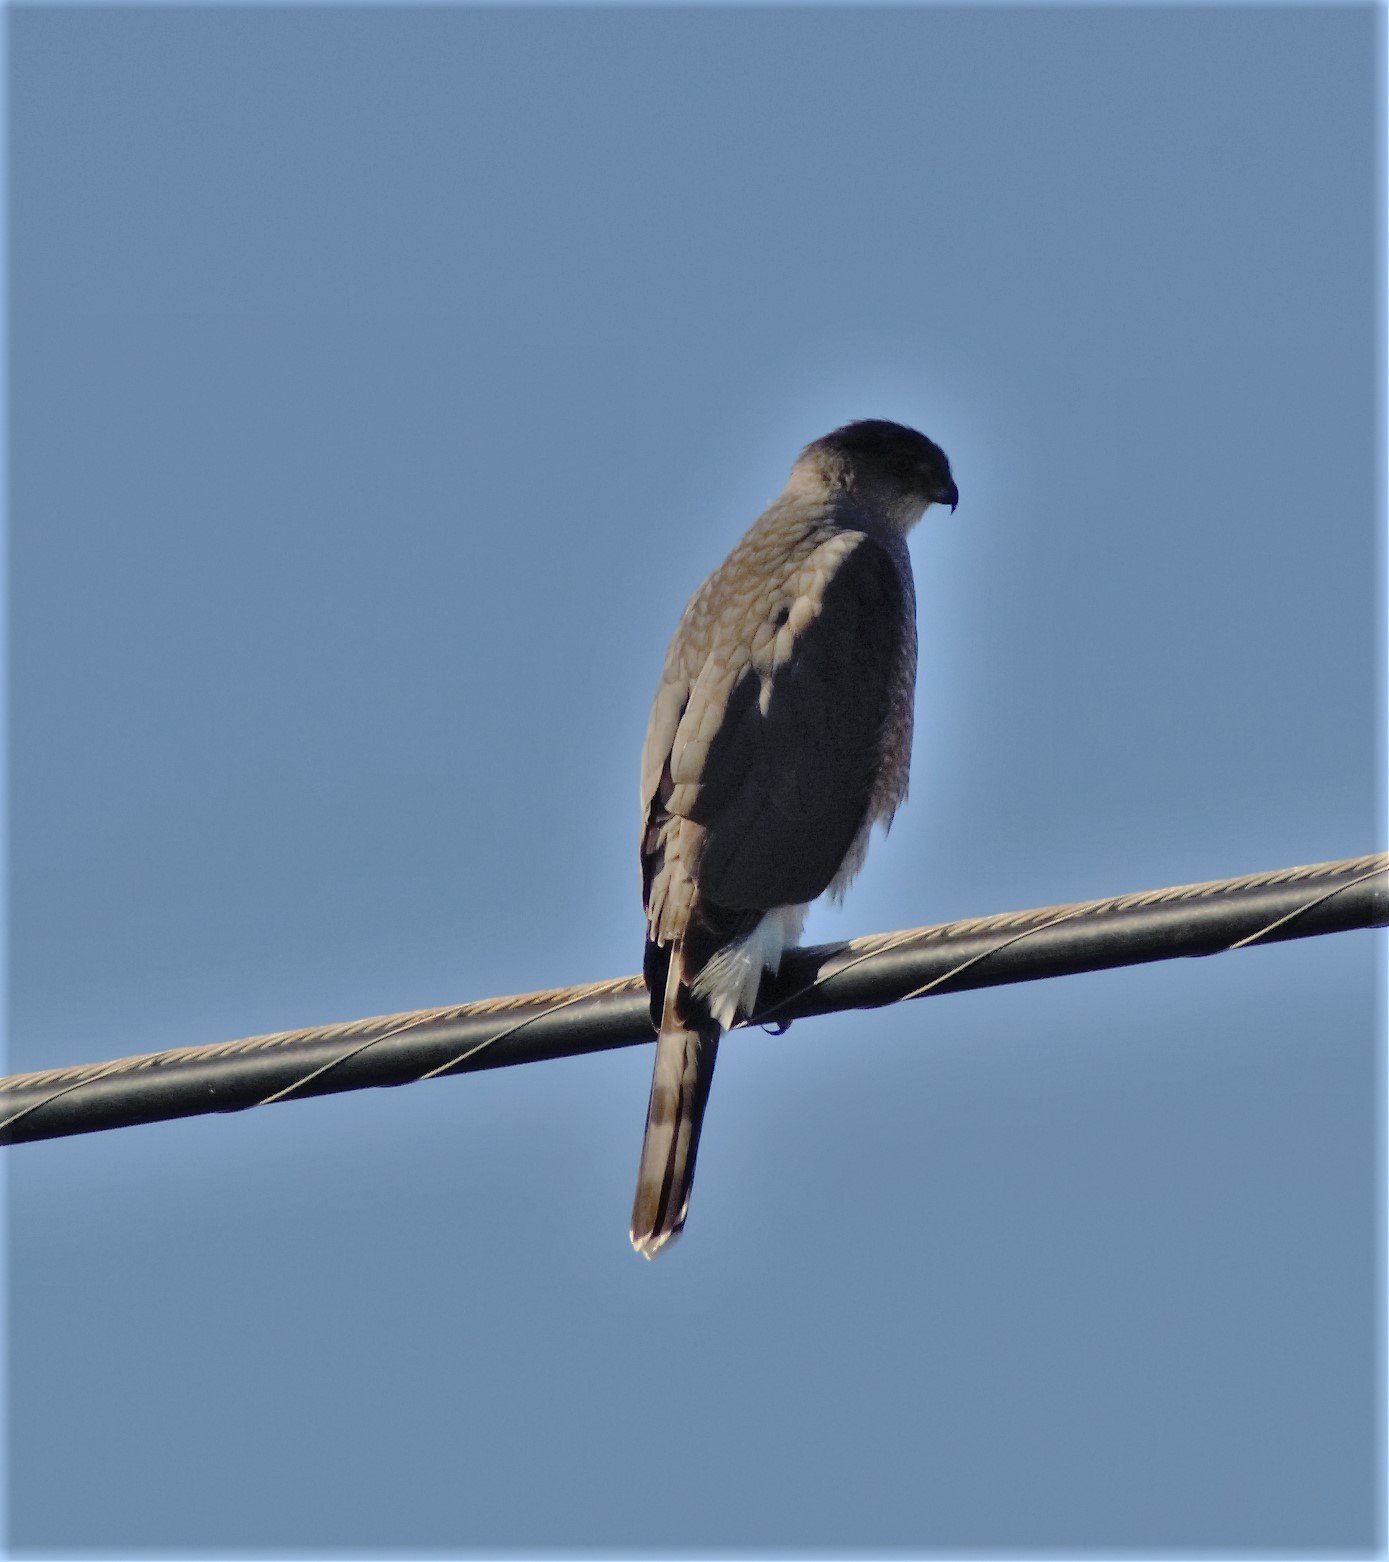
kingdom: Animalia
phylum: Chordata
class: Aves
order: Accipitriformes
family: Accipitridae
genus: Accipiter
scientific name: Accipiter cooperii
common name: Cooper's hawk
